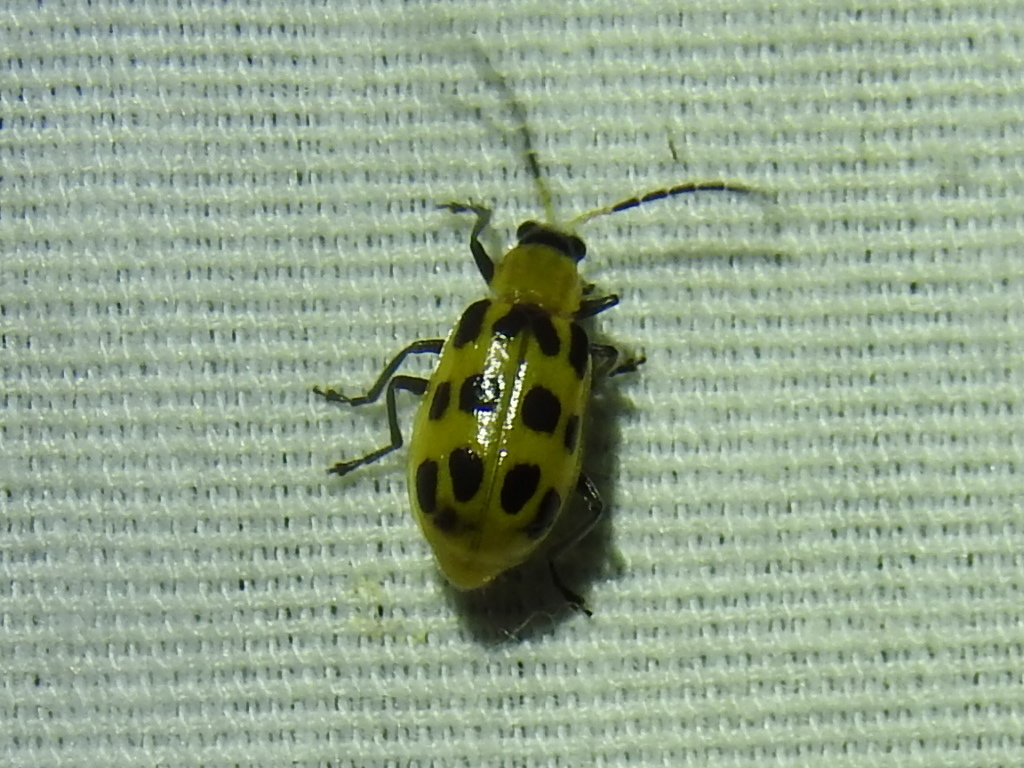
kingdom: Animalia
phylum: Arthropoda
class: Insecta
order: Coleoptera
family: Chrysomelidae
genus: Diabrotica
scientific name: Diabrotica undecimpunctata
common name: Spotted cucumber beetle
